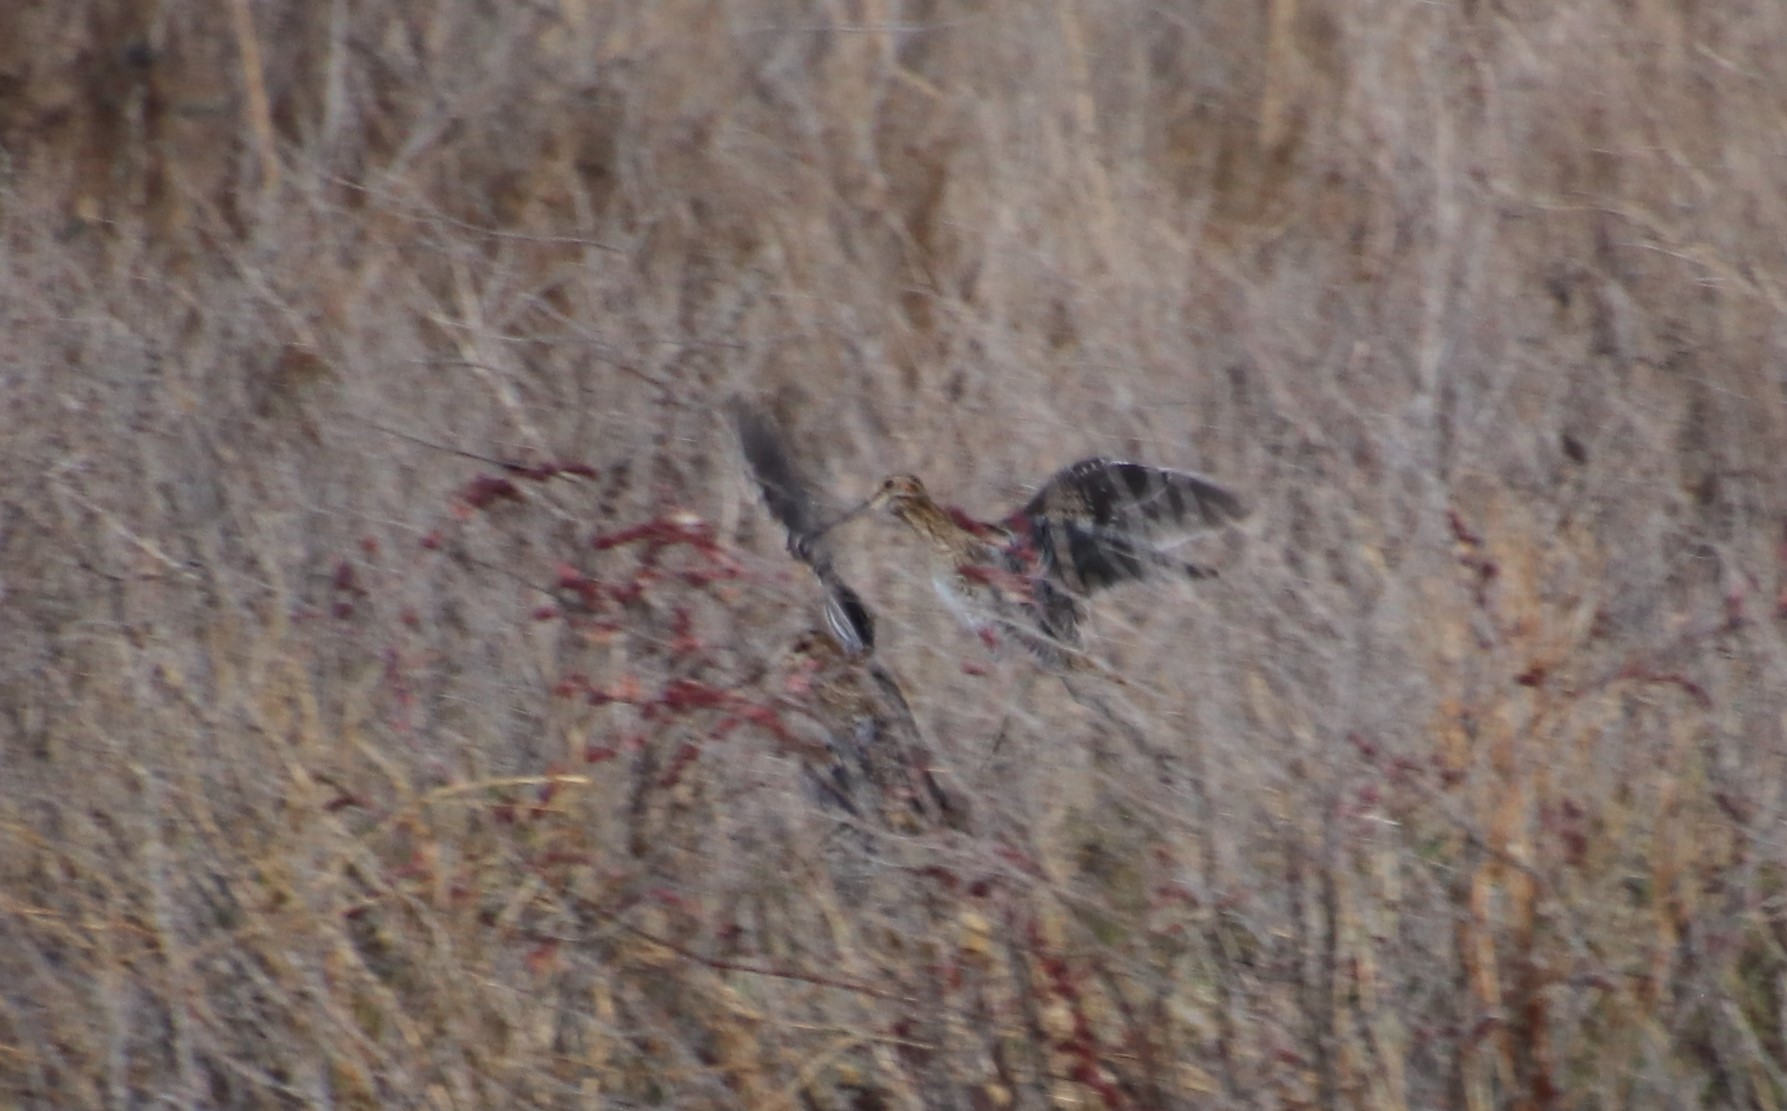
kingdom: Animalia
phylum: Chordata
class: Aves
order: Charadriiformes
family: Scolopacidae
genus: Gallinago
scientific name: Gallinago delicata
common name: Wilson's snipe
